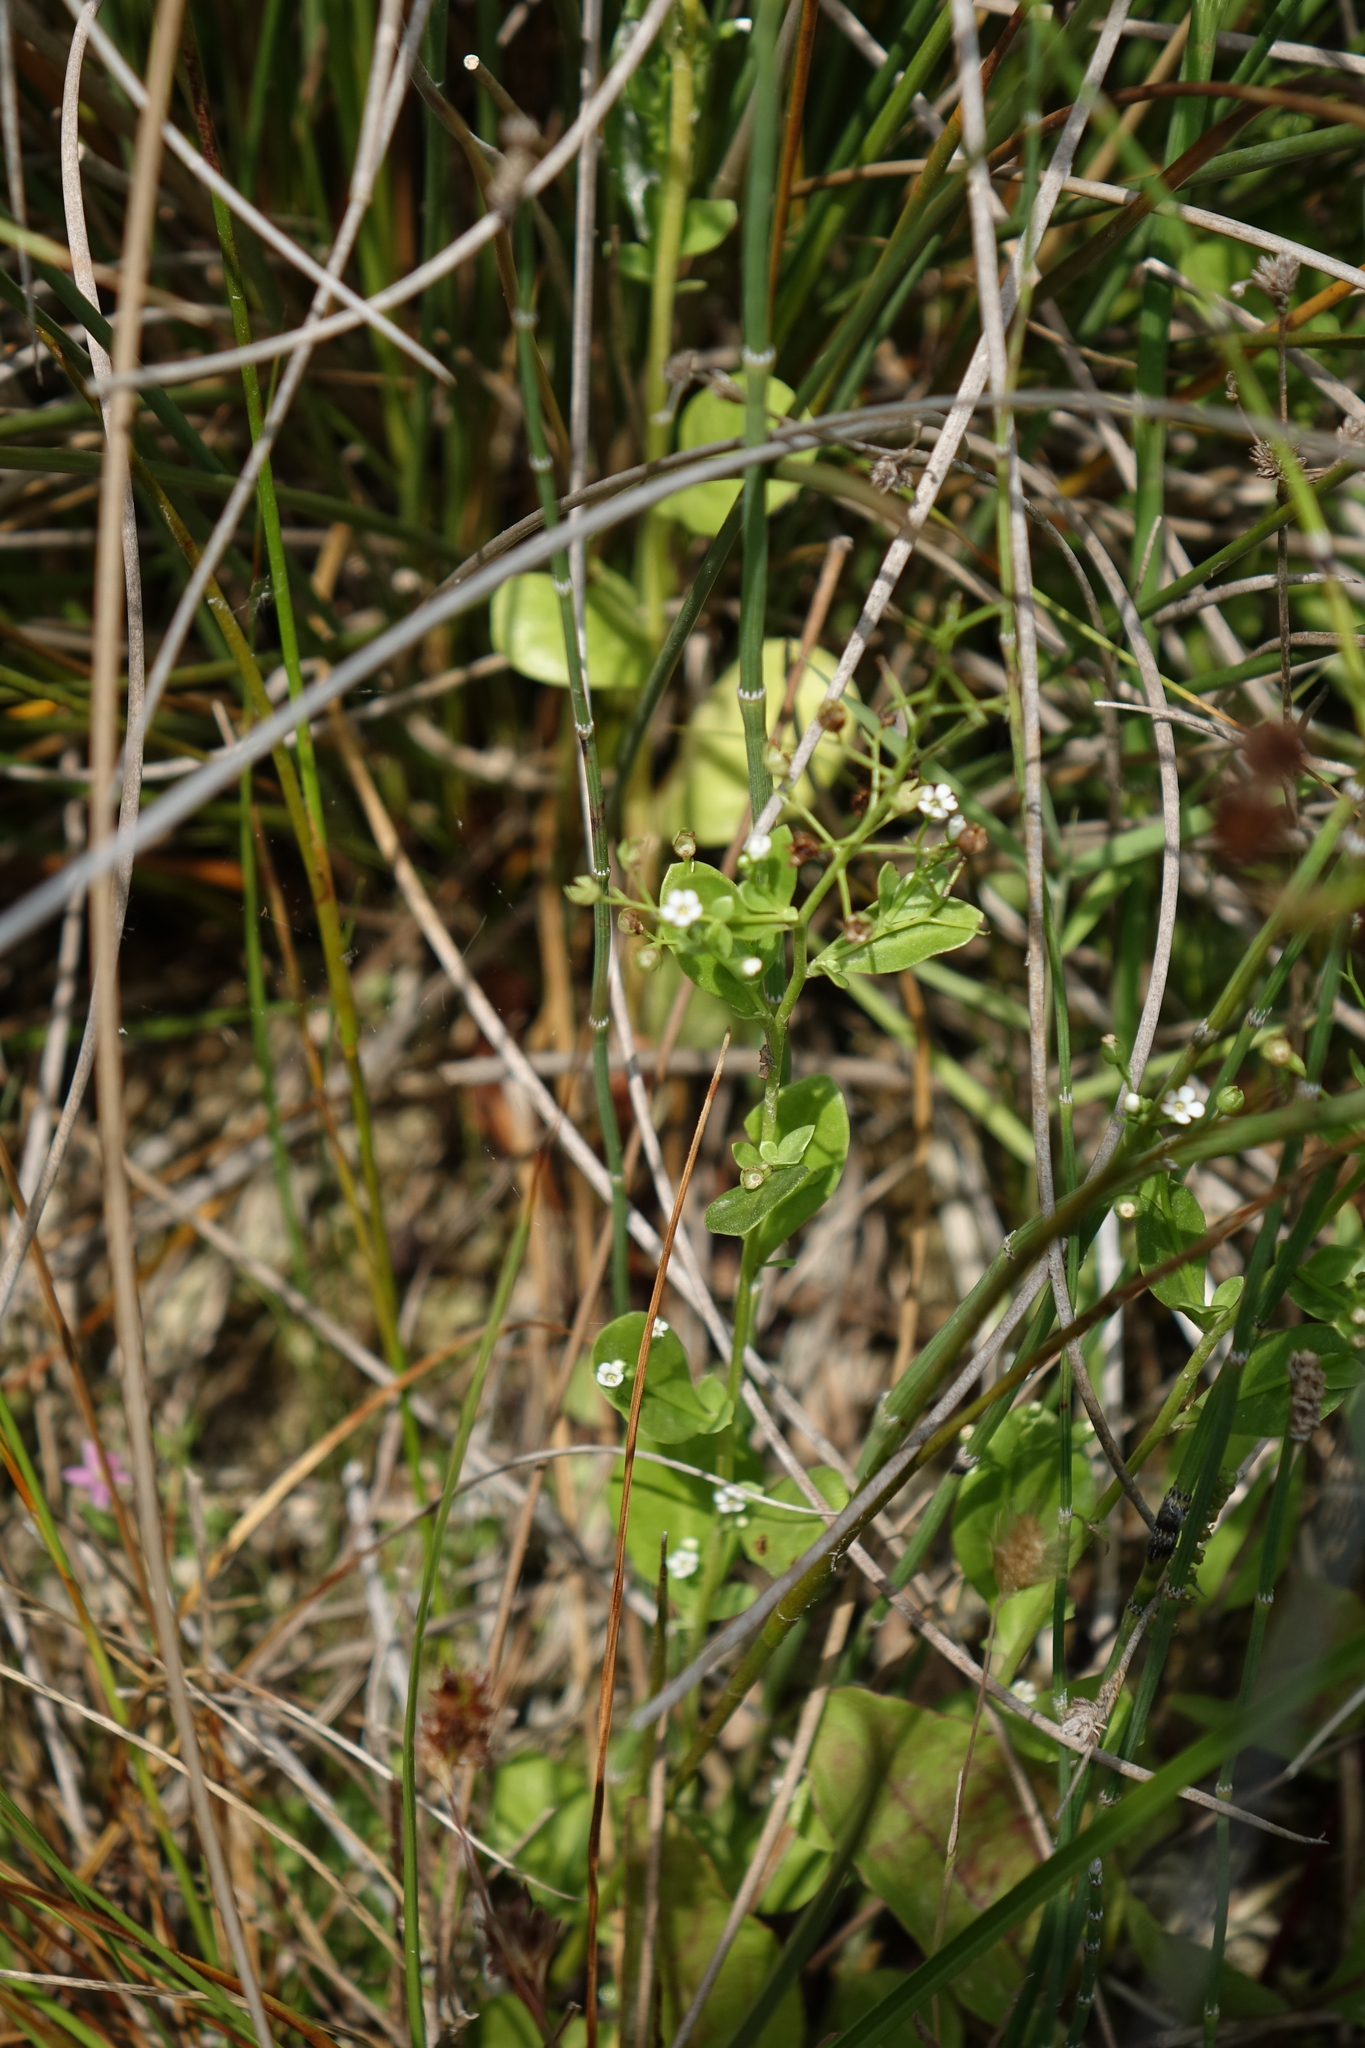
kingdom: Plantae
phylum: Tracheophyta
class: Magnoliopsida
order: Ericales
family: Primulaceae
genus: Samolus
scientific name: Samolus valerandi
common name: Brookweed
